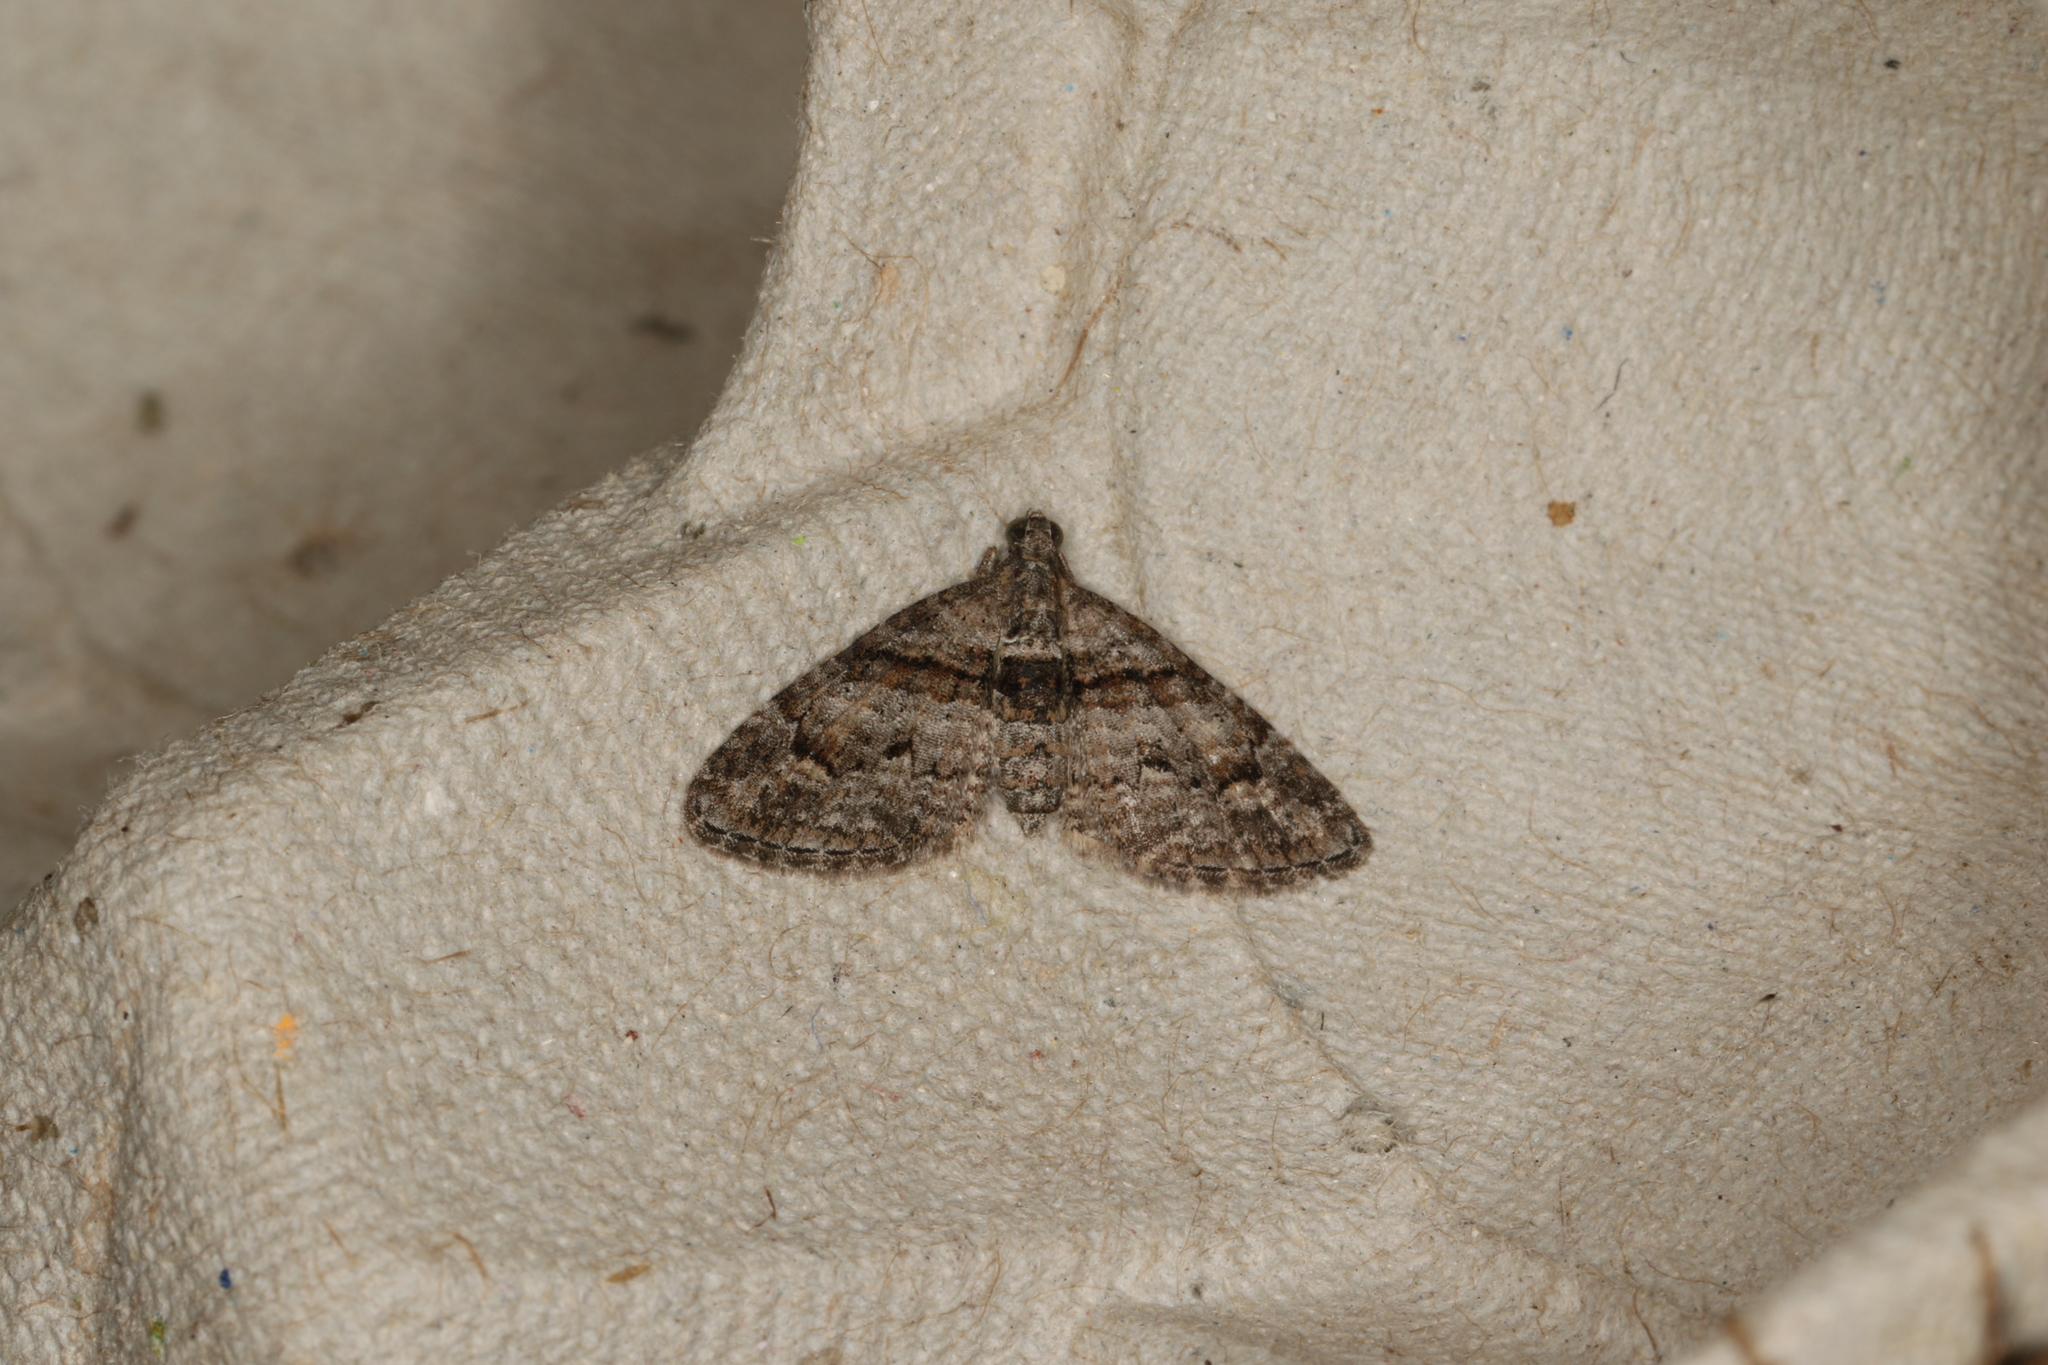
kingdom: Animalia
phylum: Arthropoda
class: Insecta
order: Lepidoptera
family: Geometridae
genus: Phrissogonus
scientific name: Phrissogonus laticostata
